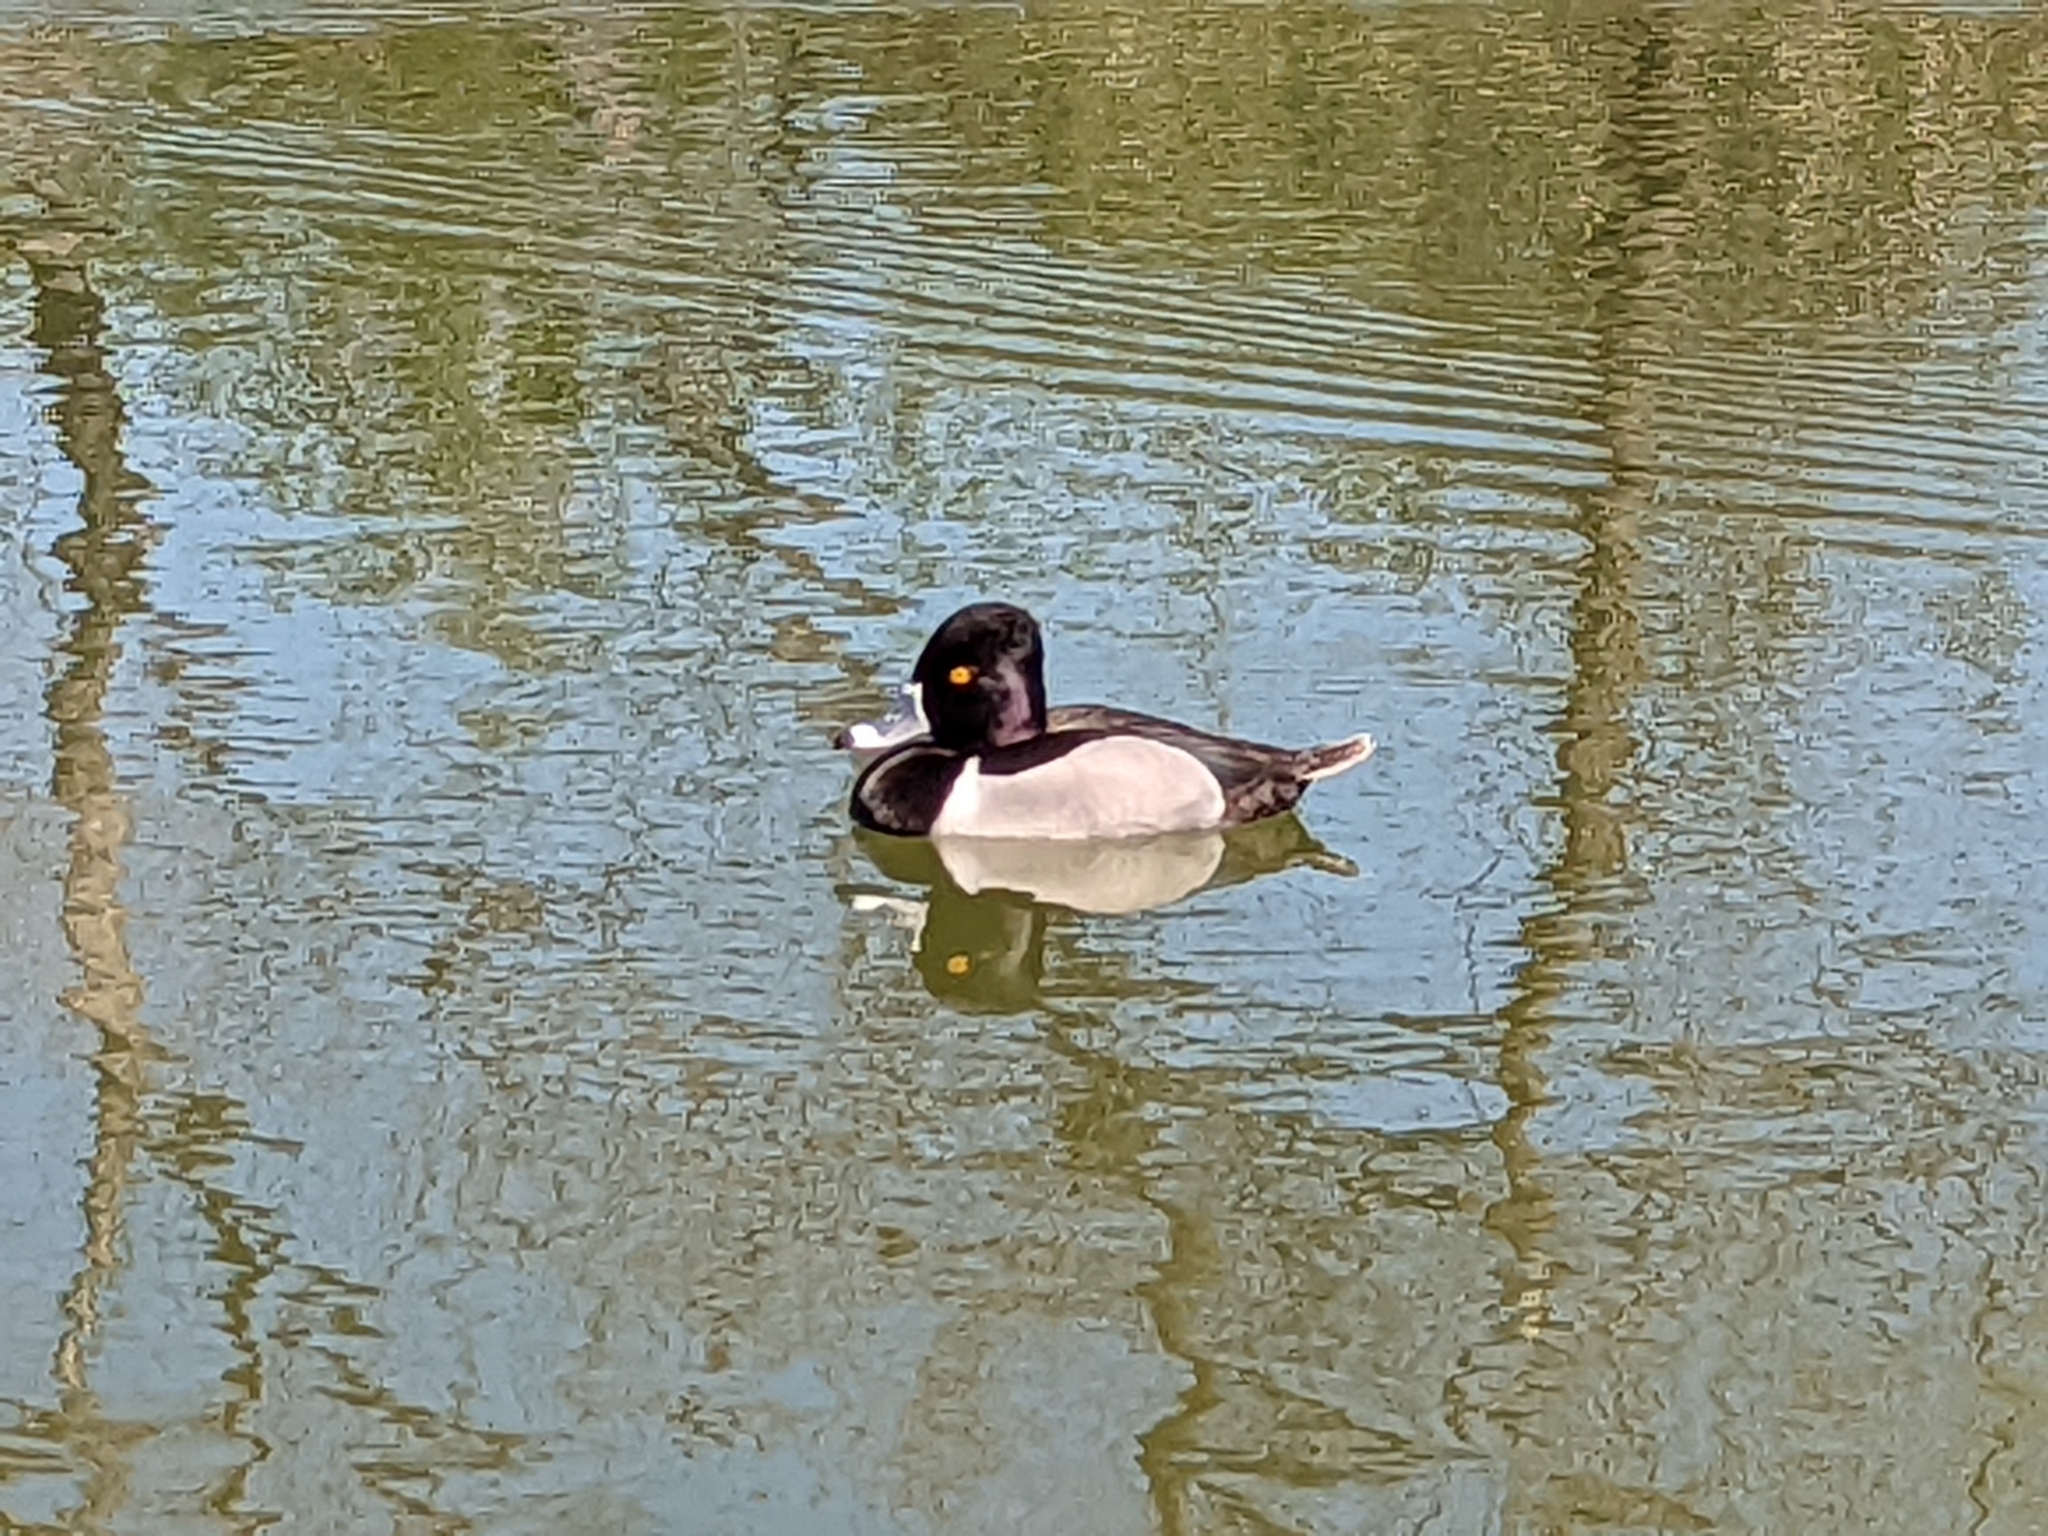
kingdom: Animalia
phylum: Chordata
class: Aves
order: Anseriformes
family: Anatidae
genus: Aythya
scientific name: Aythya collaris
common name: Ring-necked duck
